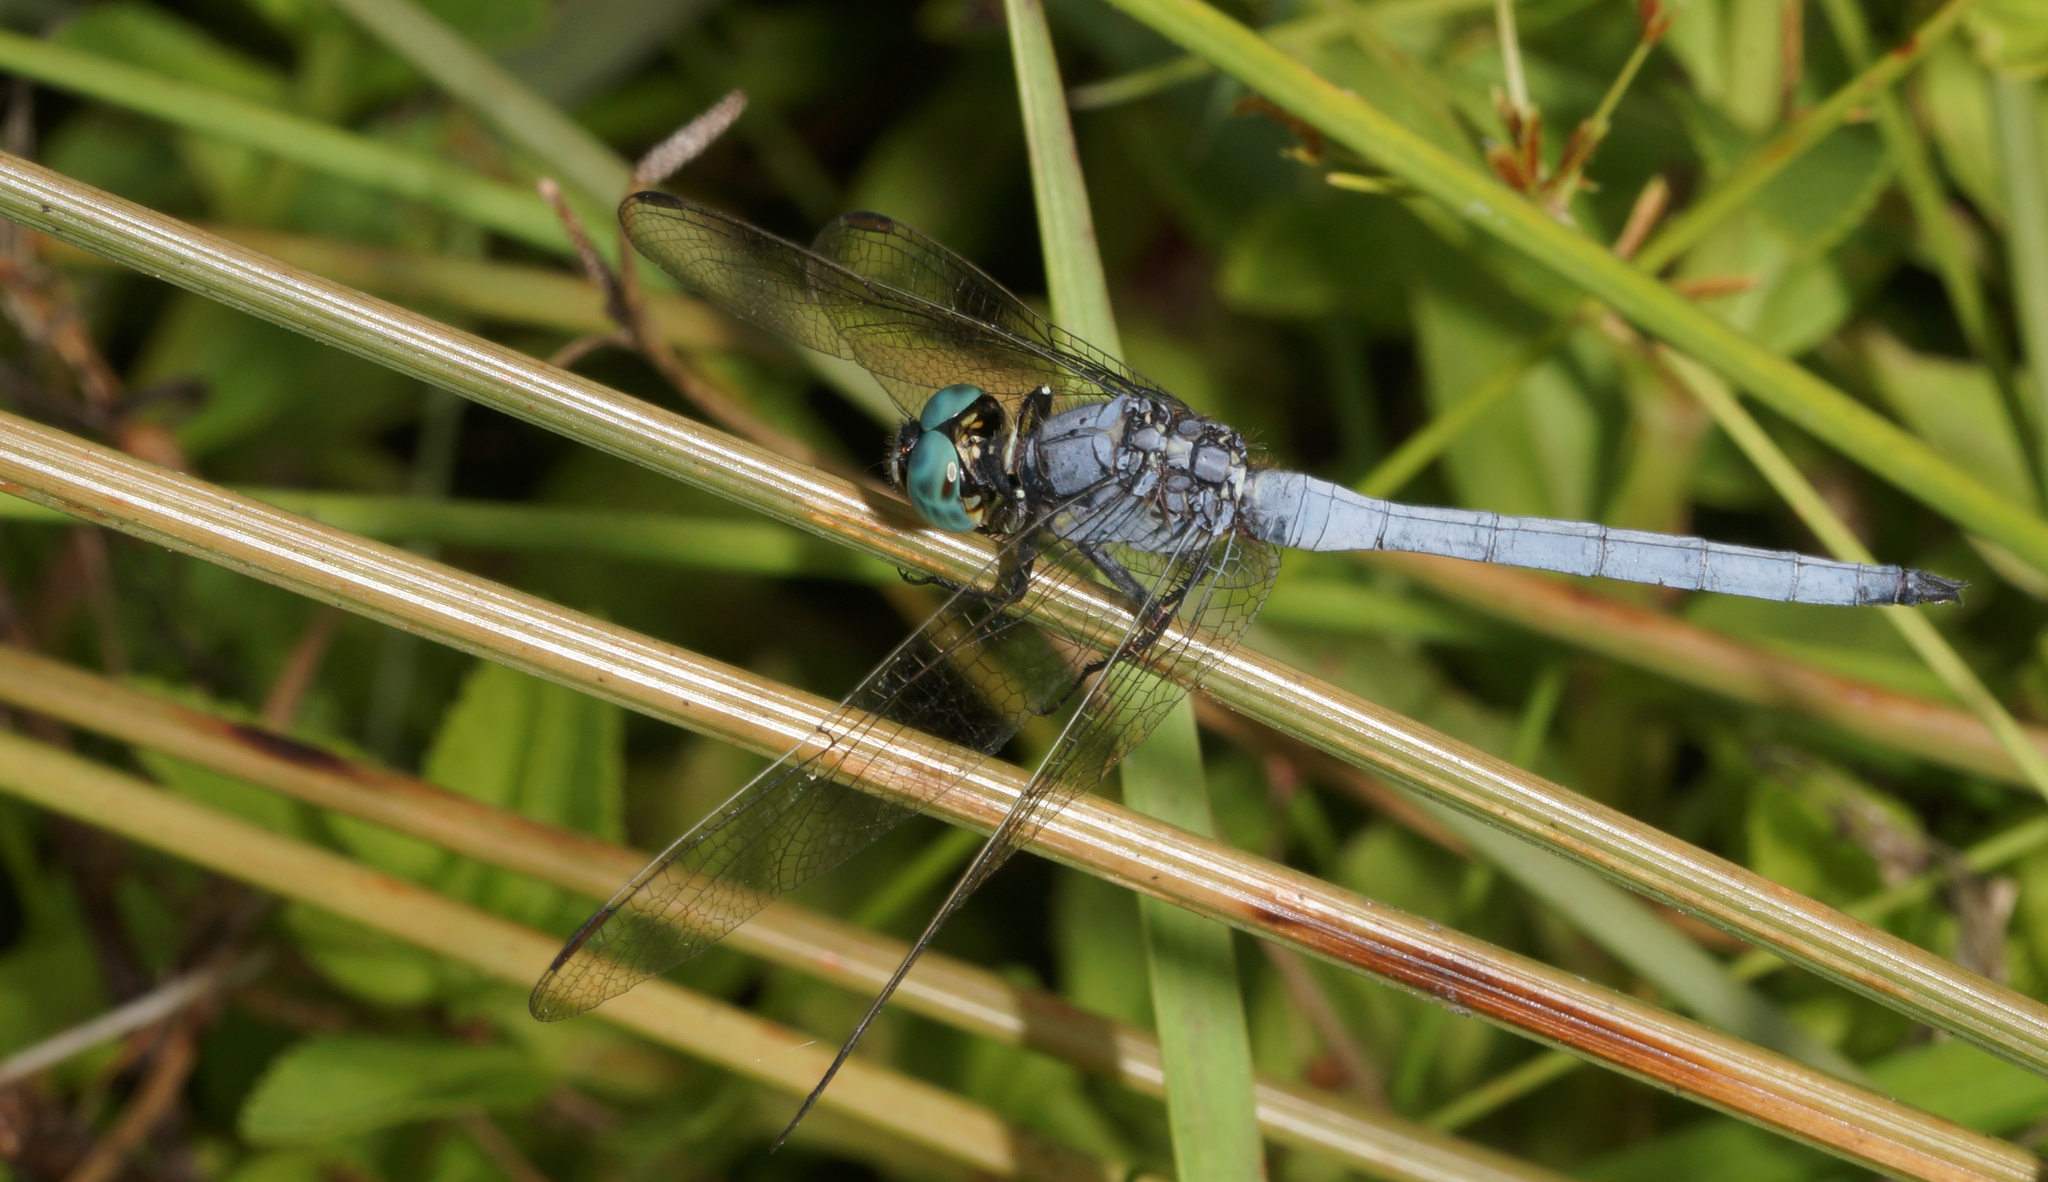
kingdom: Animalia
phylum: Arthropoda
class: Insecta
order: Odonata
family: Libellulidae
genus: Orthetrum
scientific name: Orthetrum luzonicum
